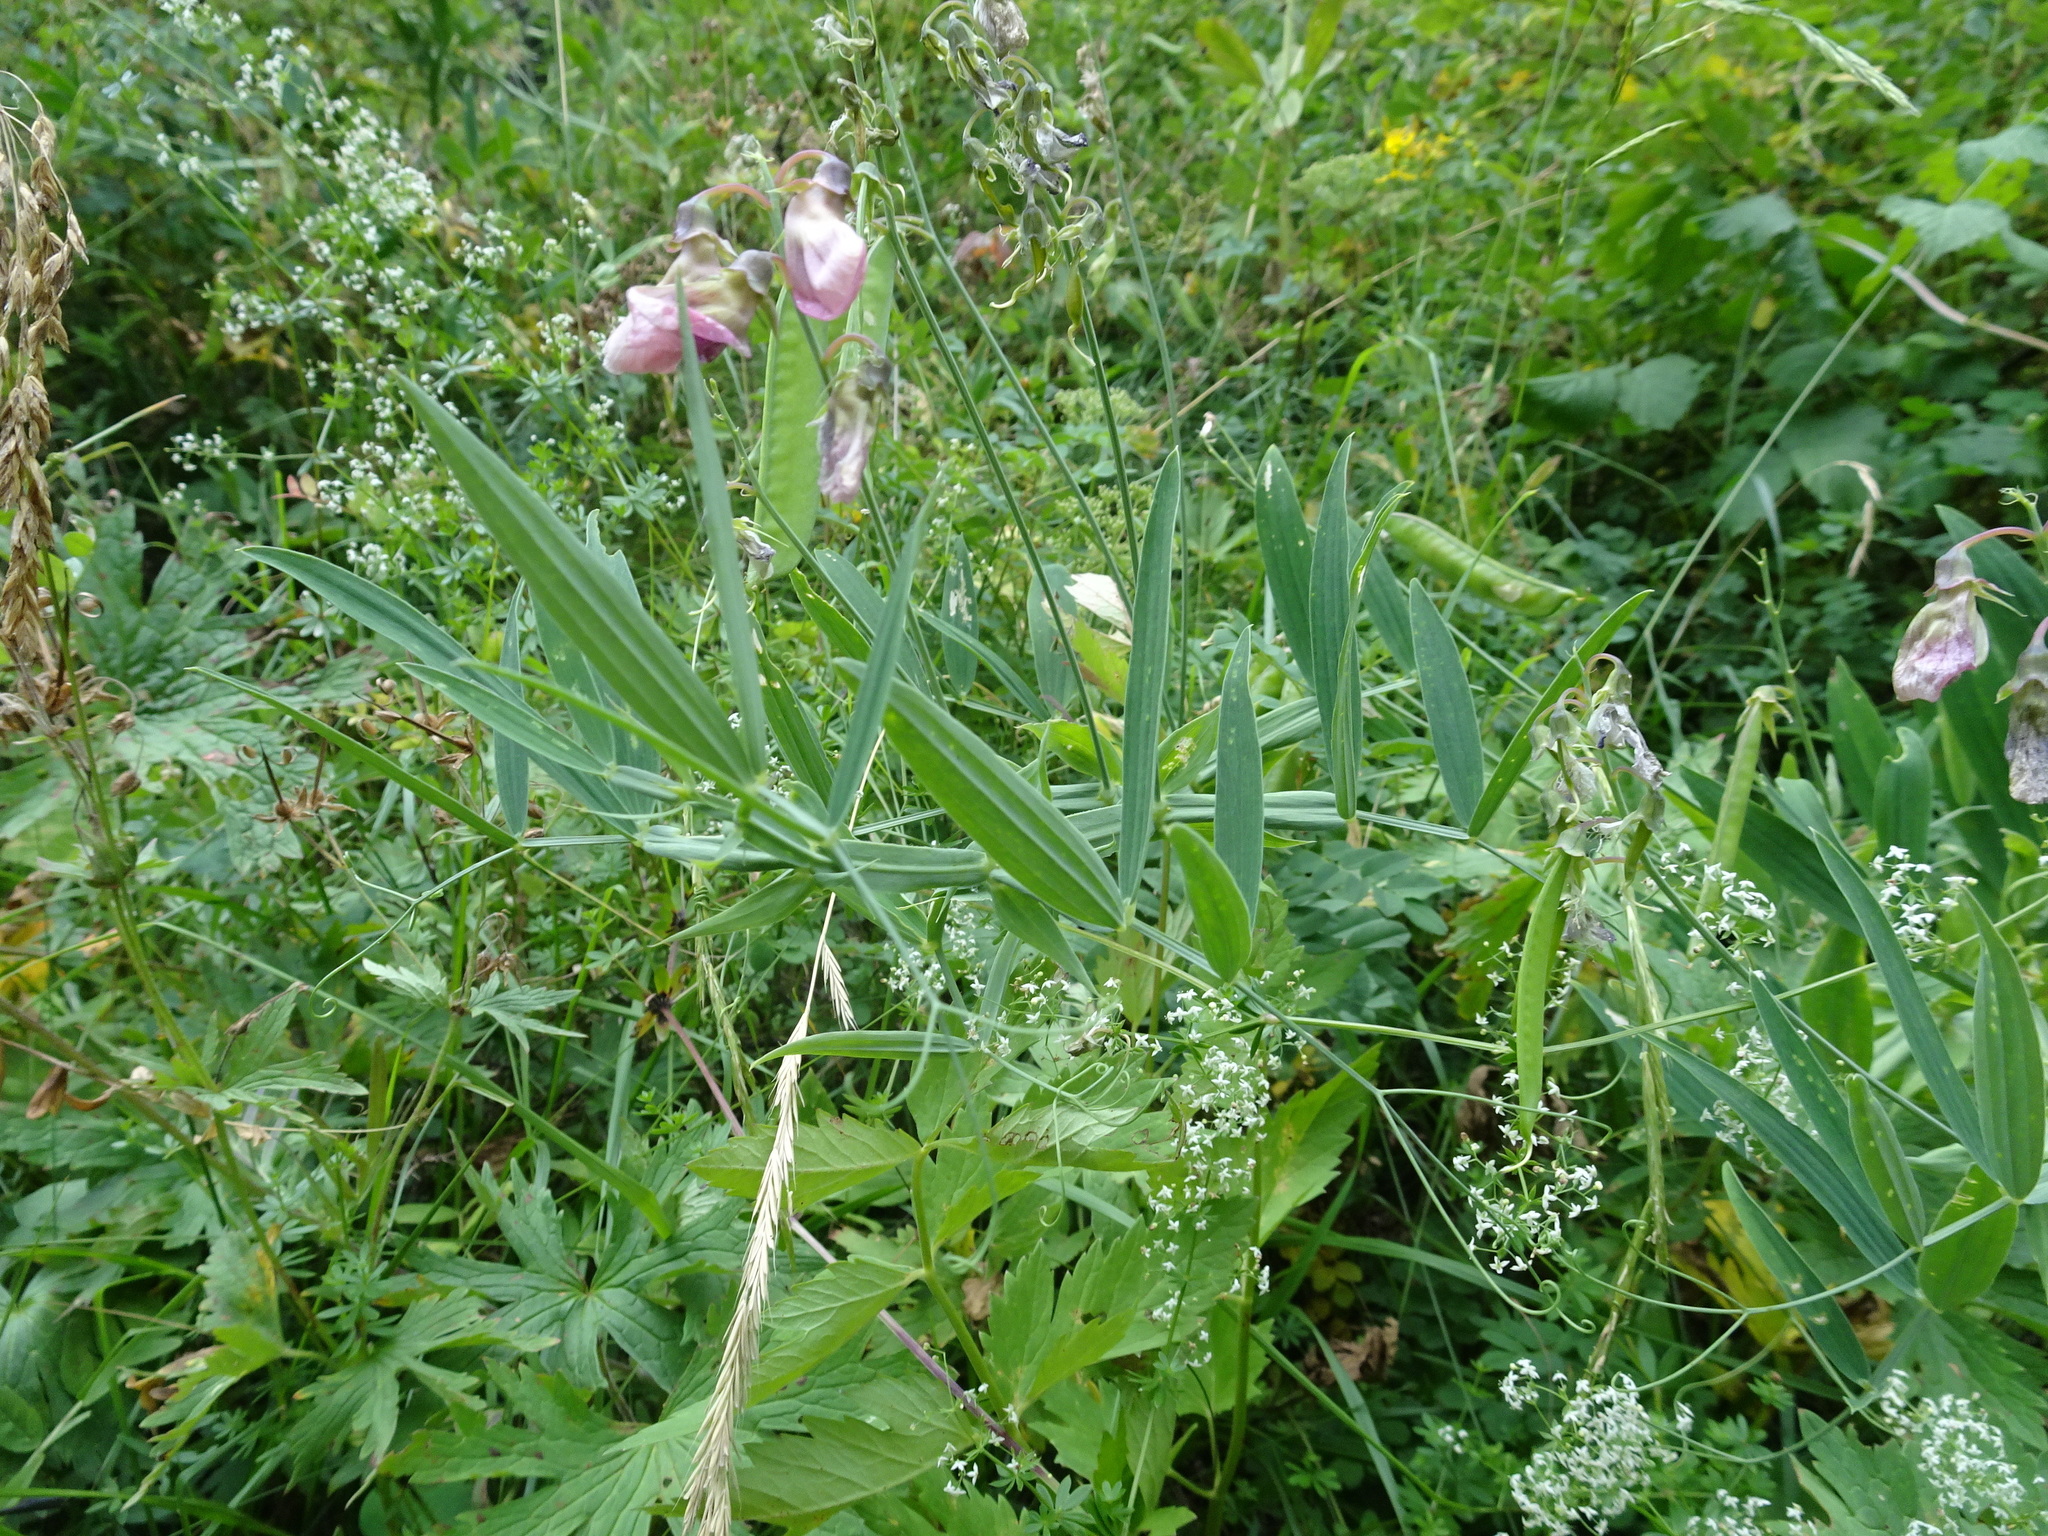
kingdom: Plantae
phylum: Tracheophyta
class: Magnoliopsida
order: Fabales
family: Fabaceae
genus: Lathyrus
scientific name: Lathyrus sylvestris
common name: Flat pea
